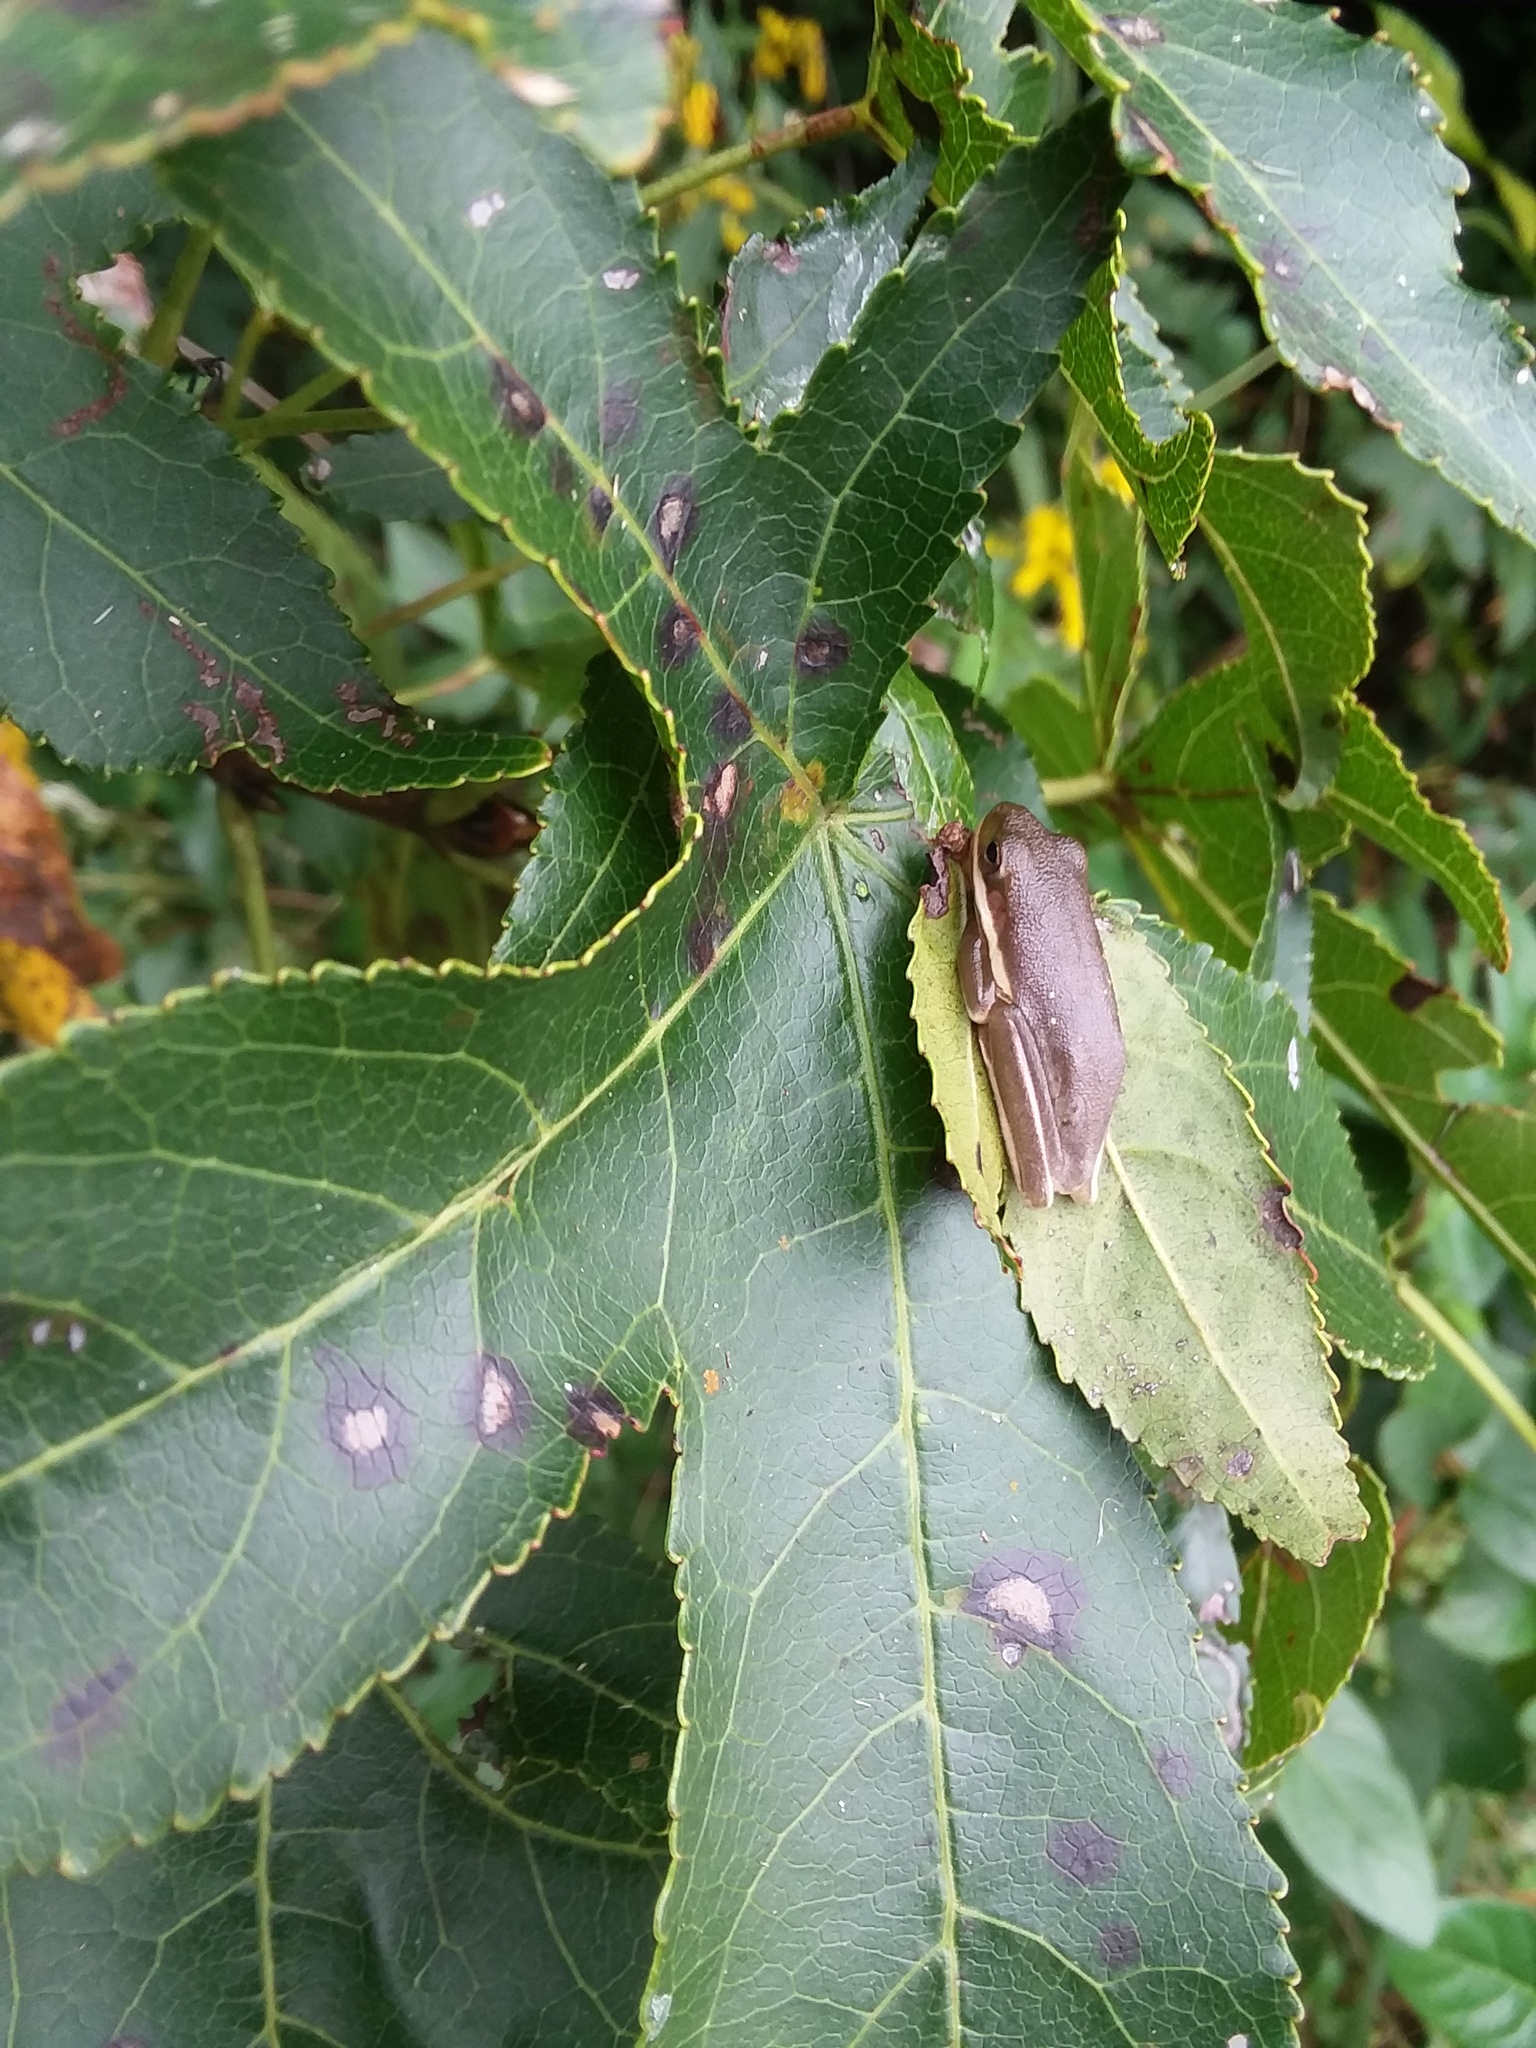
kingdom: Animalia
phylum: Chordata
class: Amphibia
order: Anura
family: Hylidae
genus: Dryophytes
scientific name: Dryophytes cinereus
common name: Green treefrog
